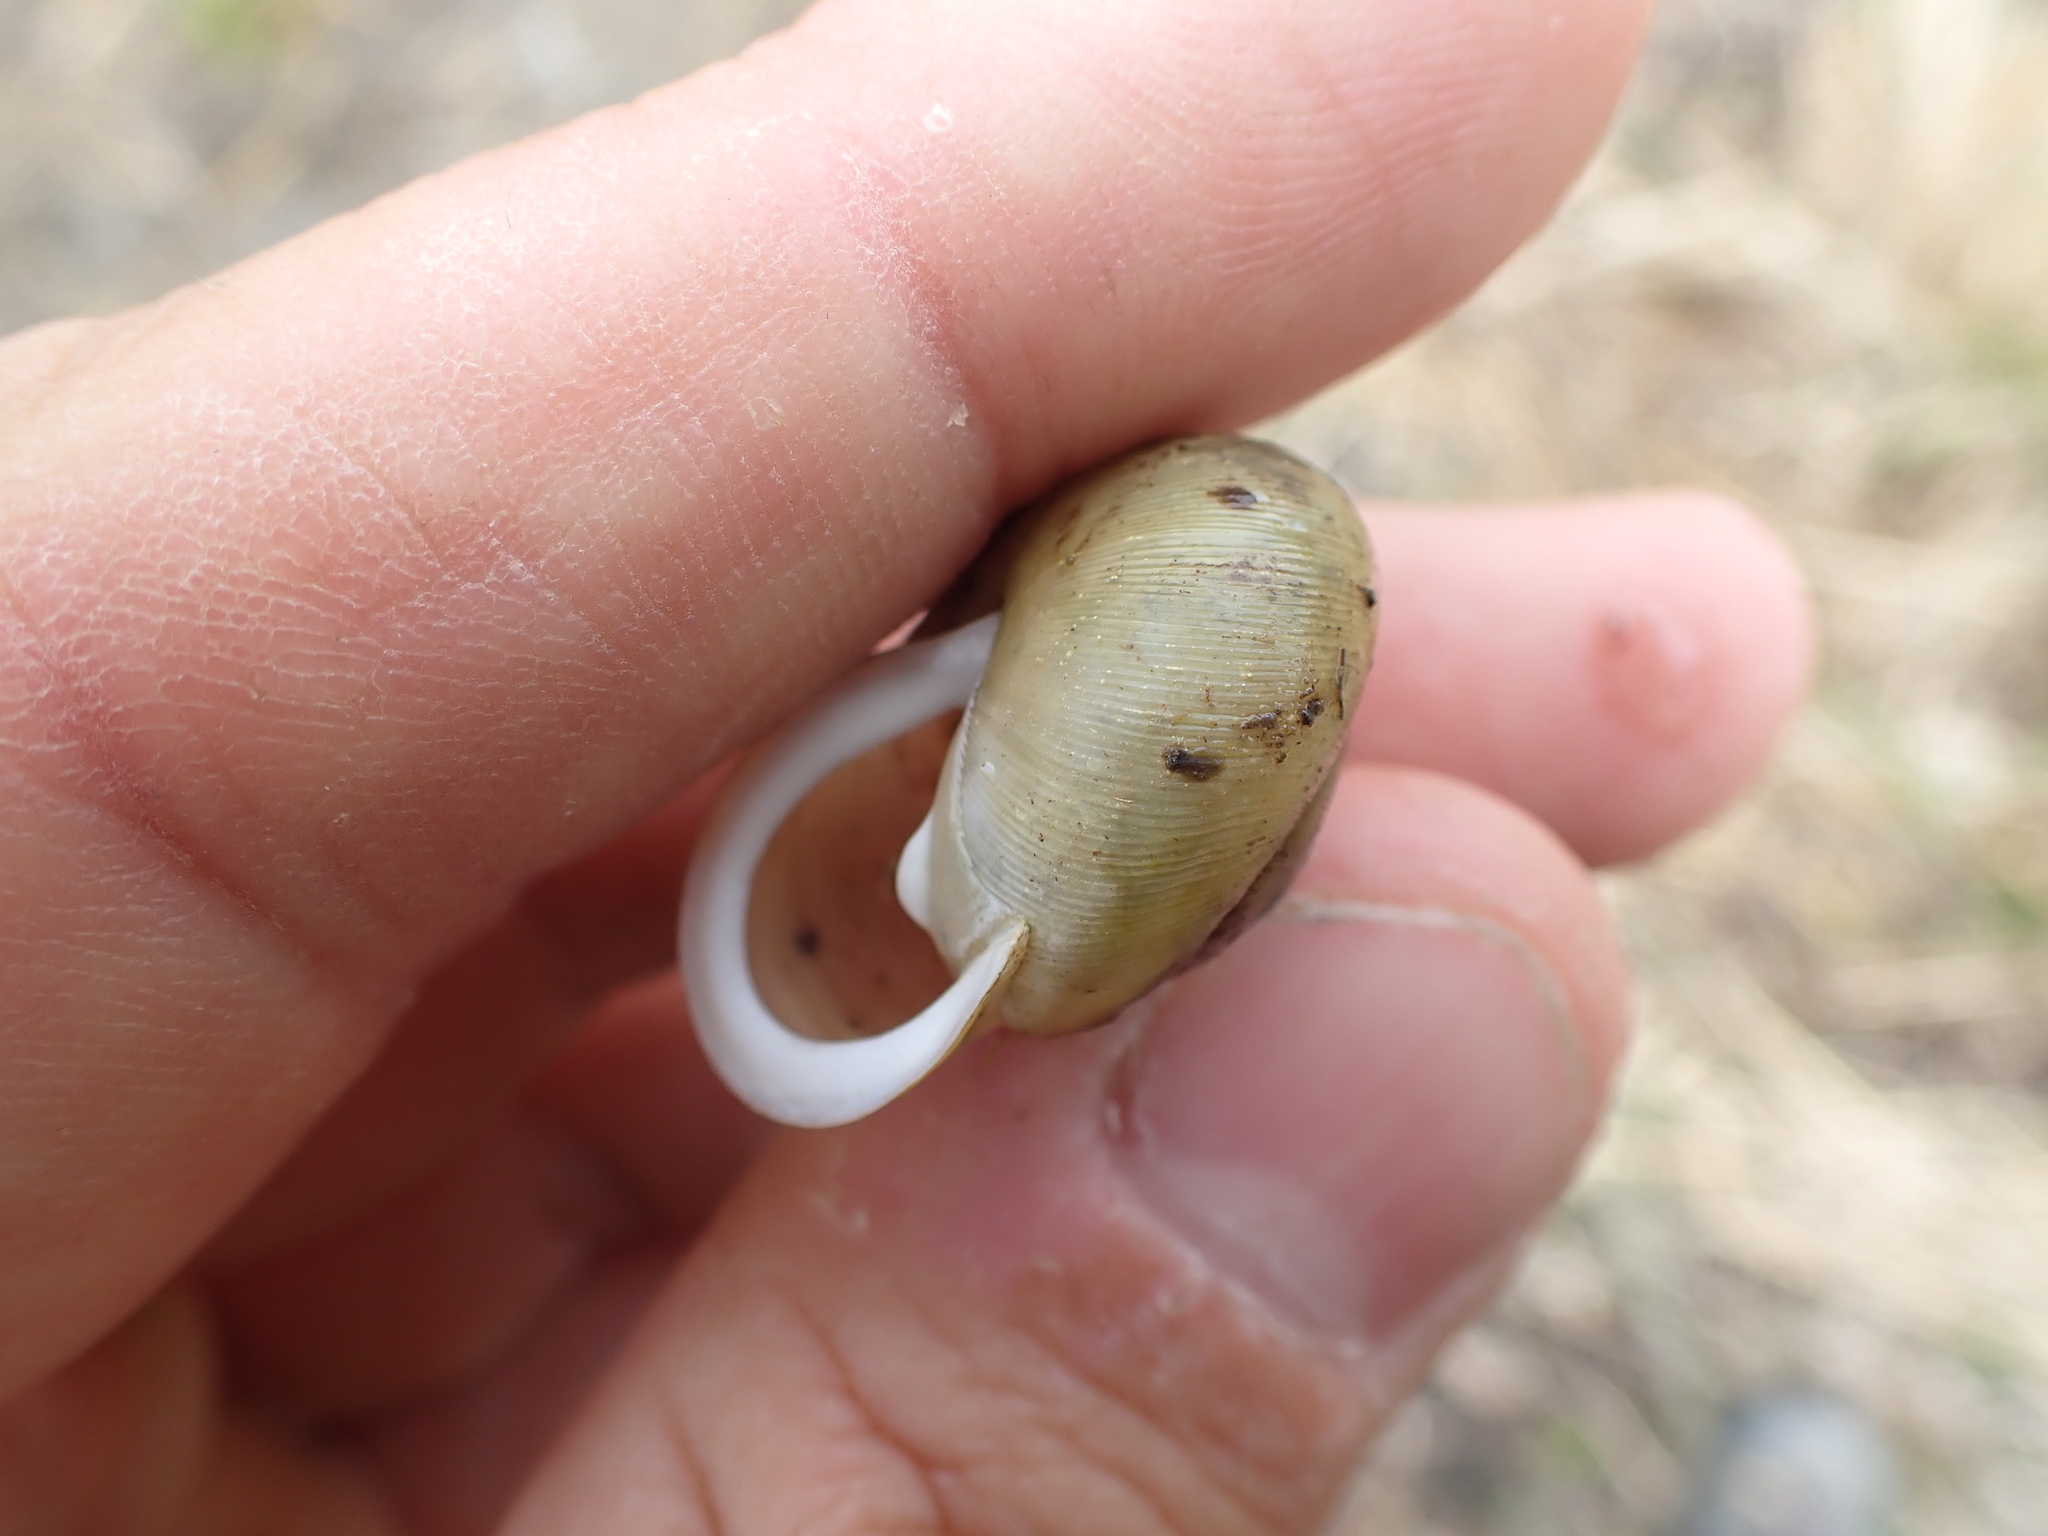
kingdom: Animalia
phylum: Mollusca
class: Gastropoda
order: Stylommatophora
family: Polygyridae
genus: Mesodon
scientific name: Mesodon thyroidus
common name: White-lip globe
